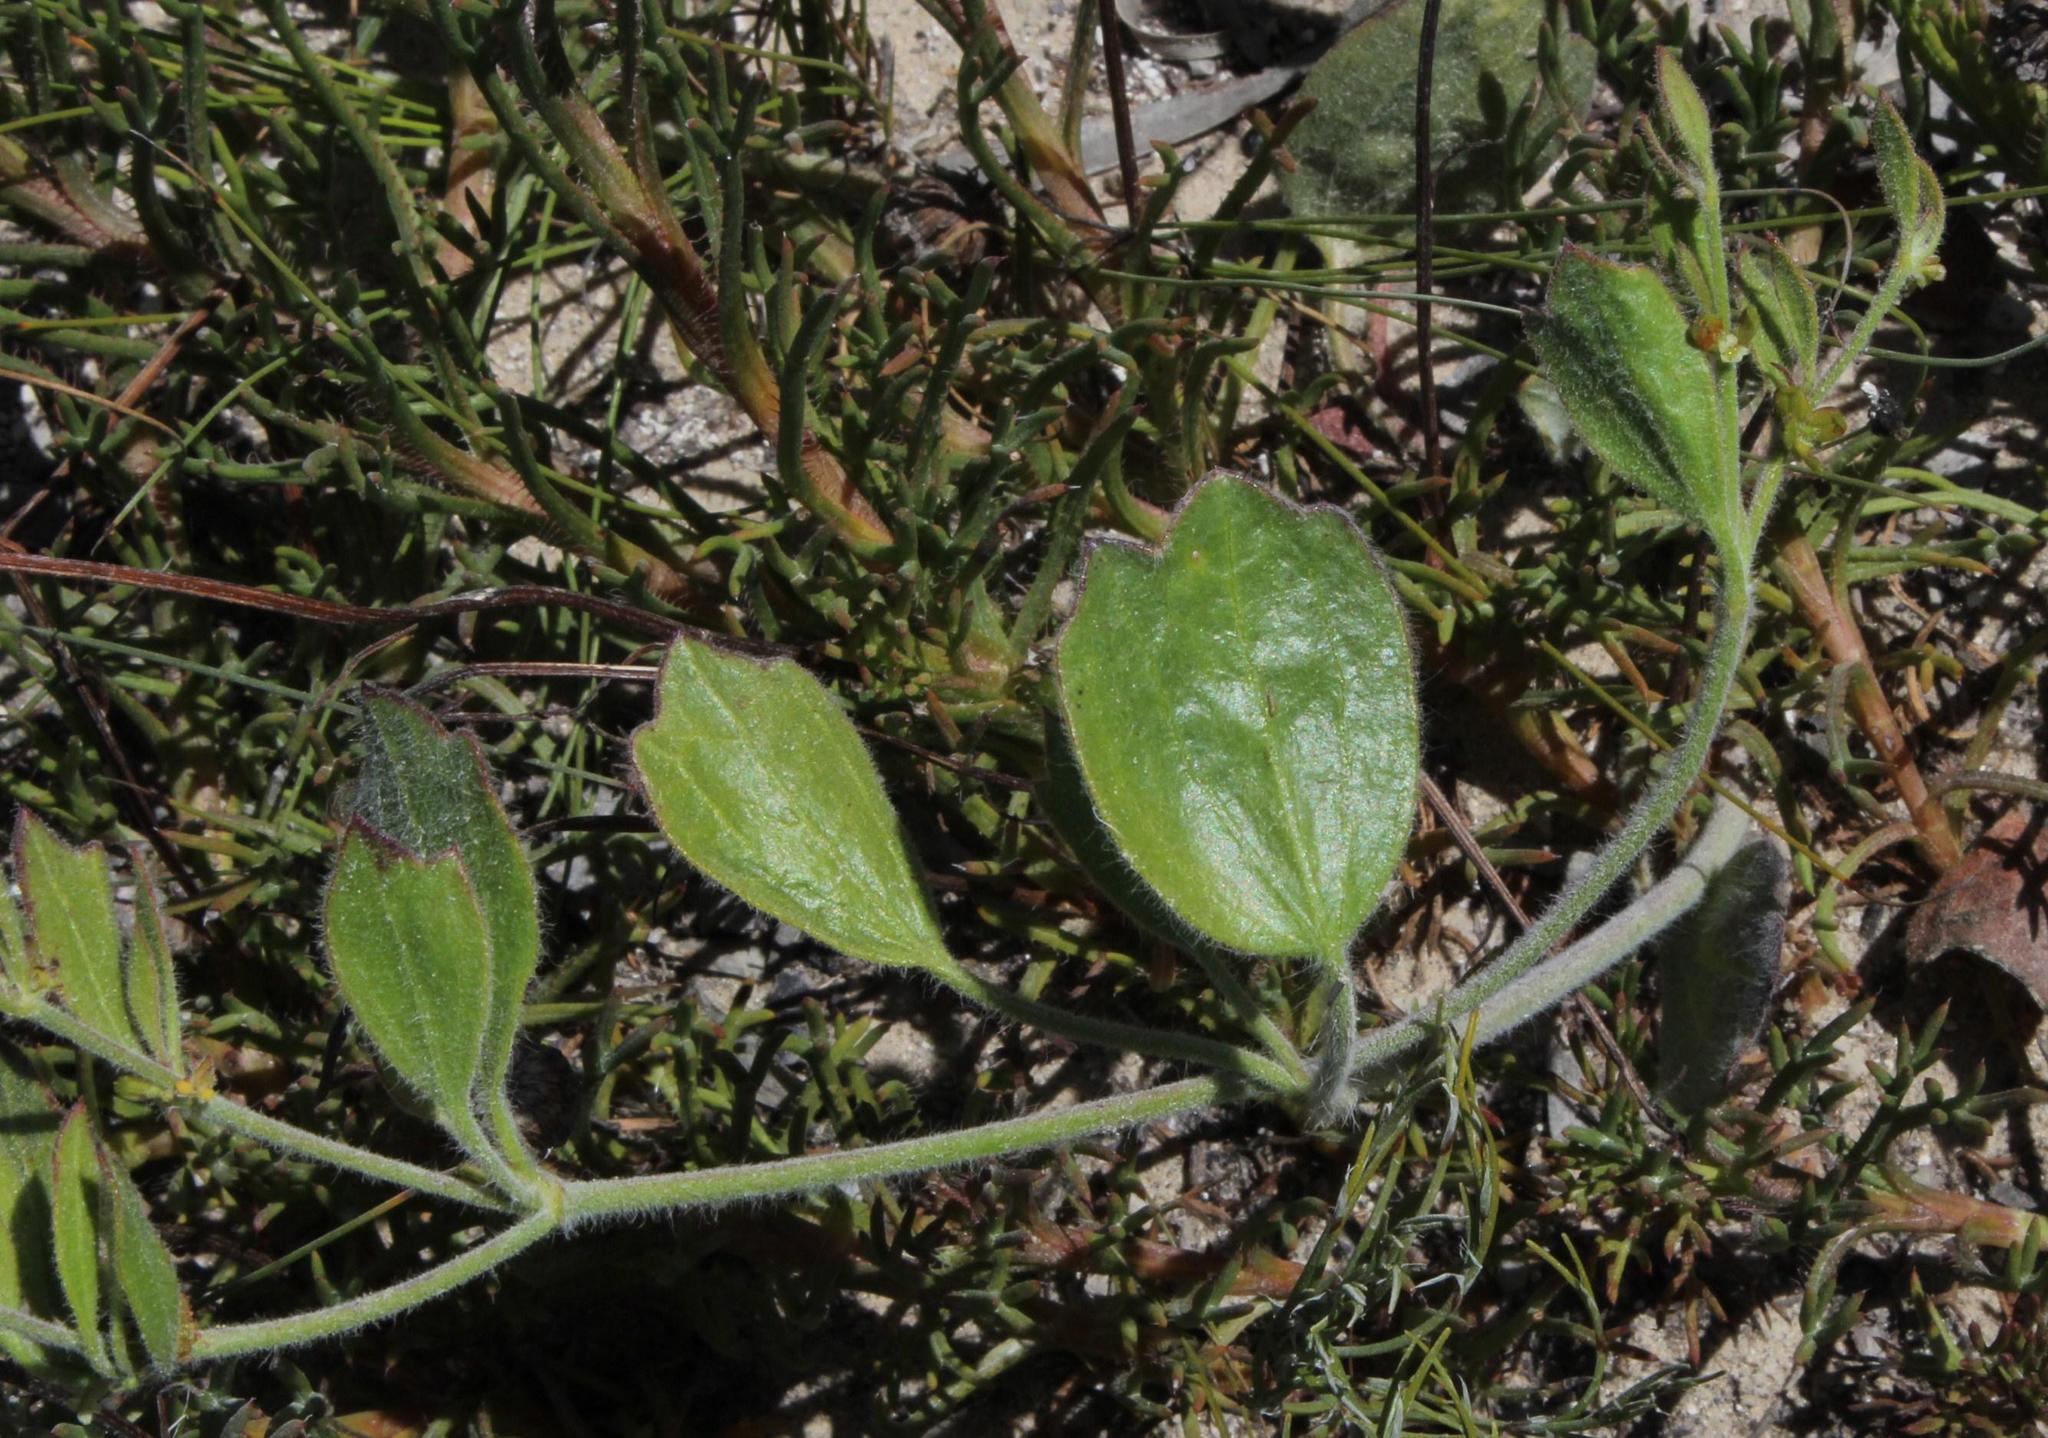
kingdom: Plantae
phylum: Tracheophyta
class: Magnoliopsida
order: Apiales
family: Apiaceae
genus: Centella
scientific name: Centella difformis
